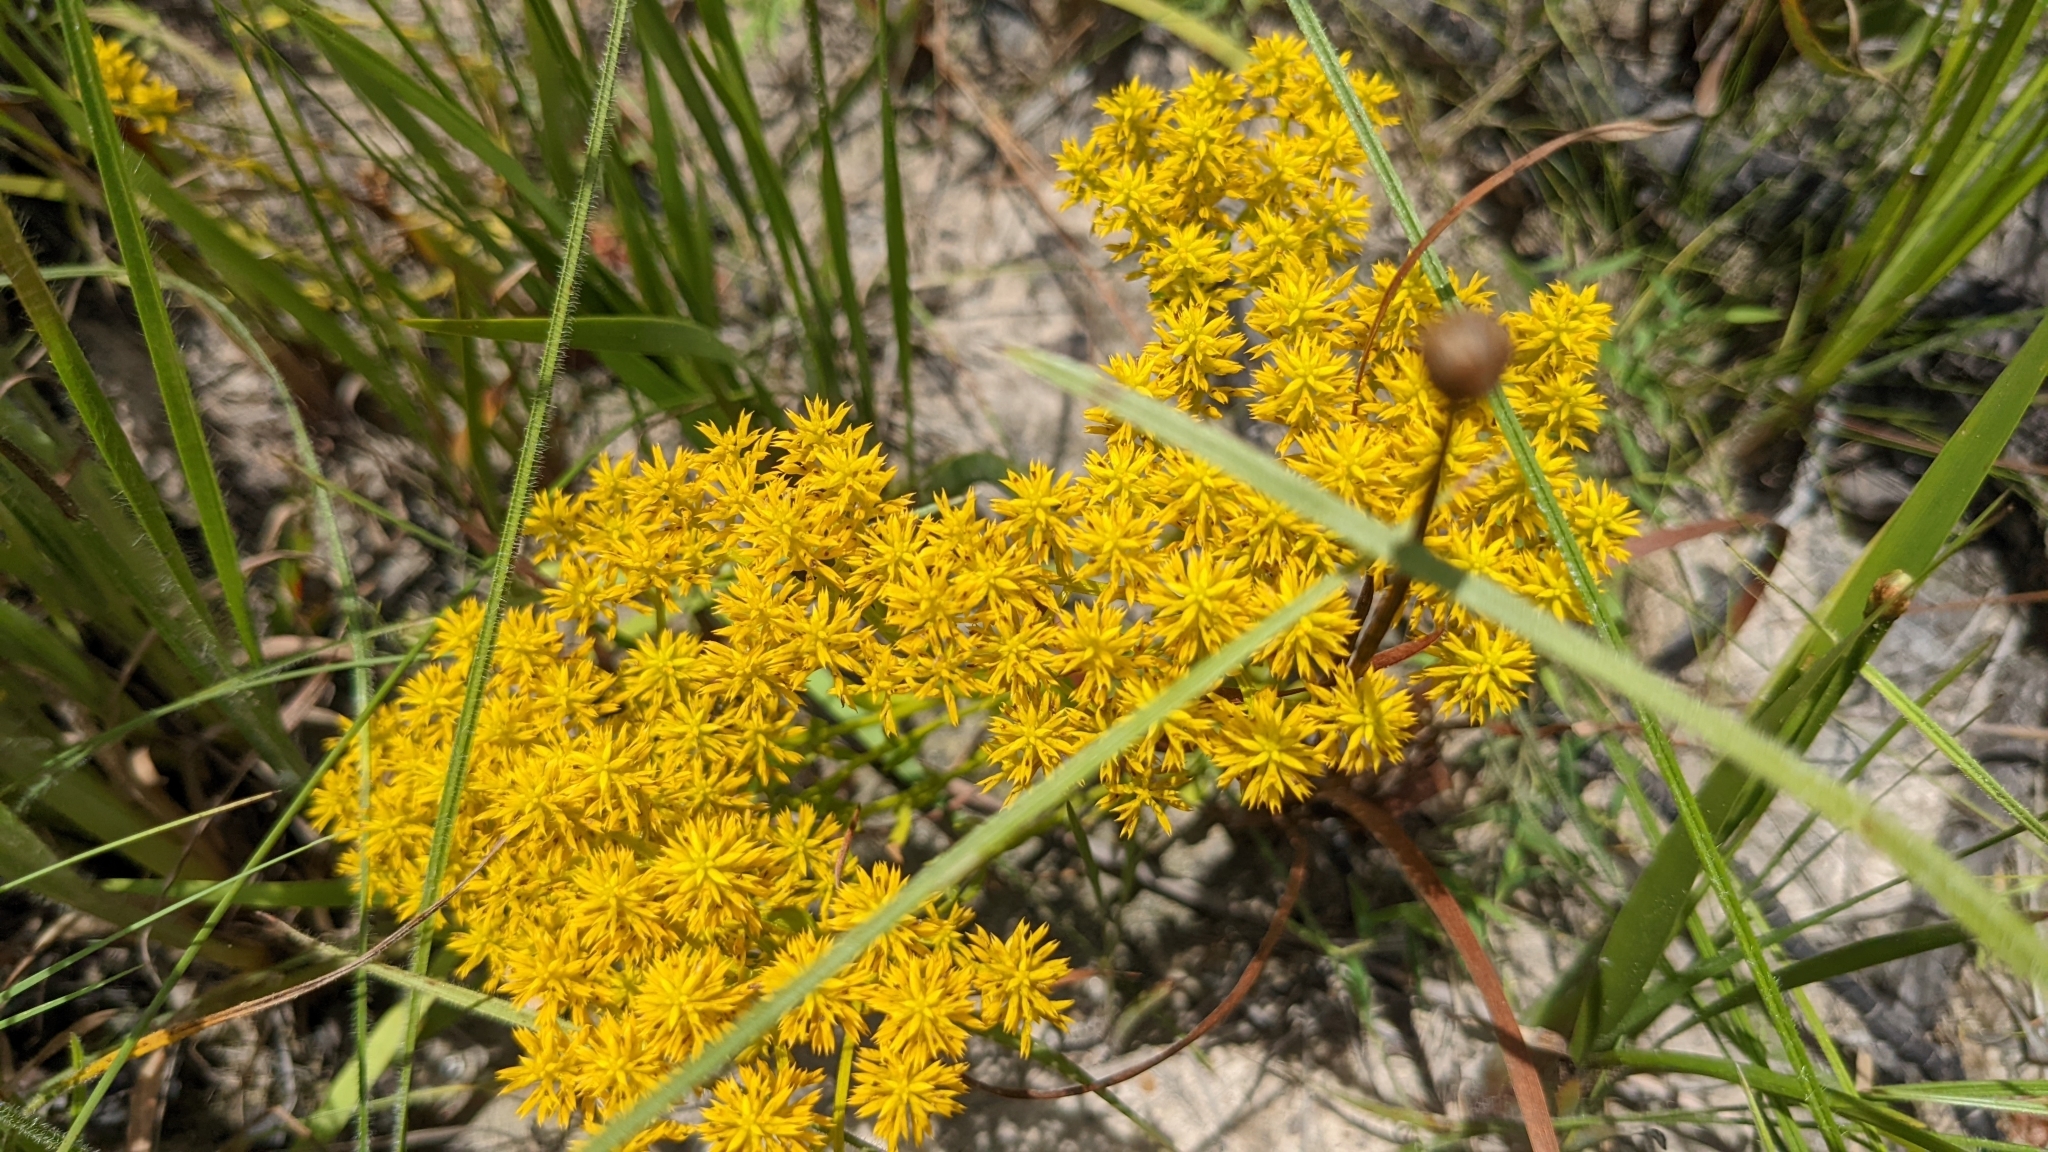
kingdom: Plantae
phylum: Tracheophyta
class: Magnoliopsida
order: Fabales
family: Polygalaceae
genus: Polygala
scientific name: Polygala ramosa
